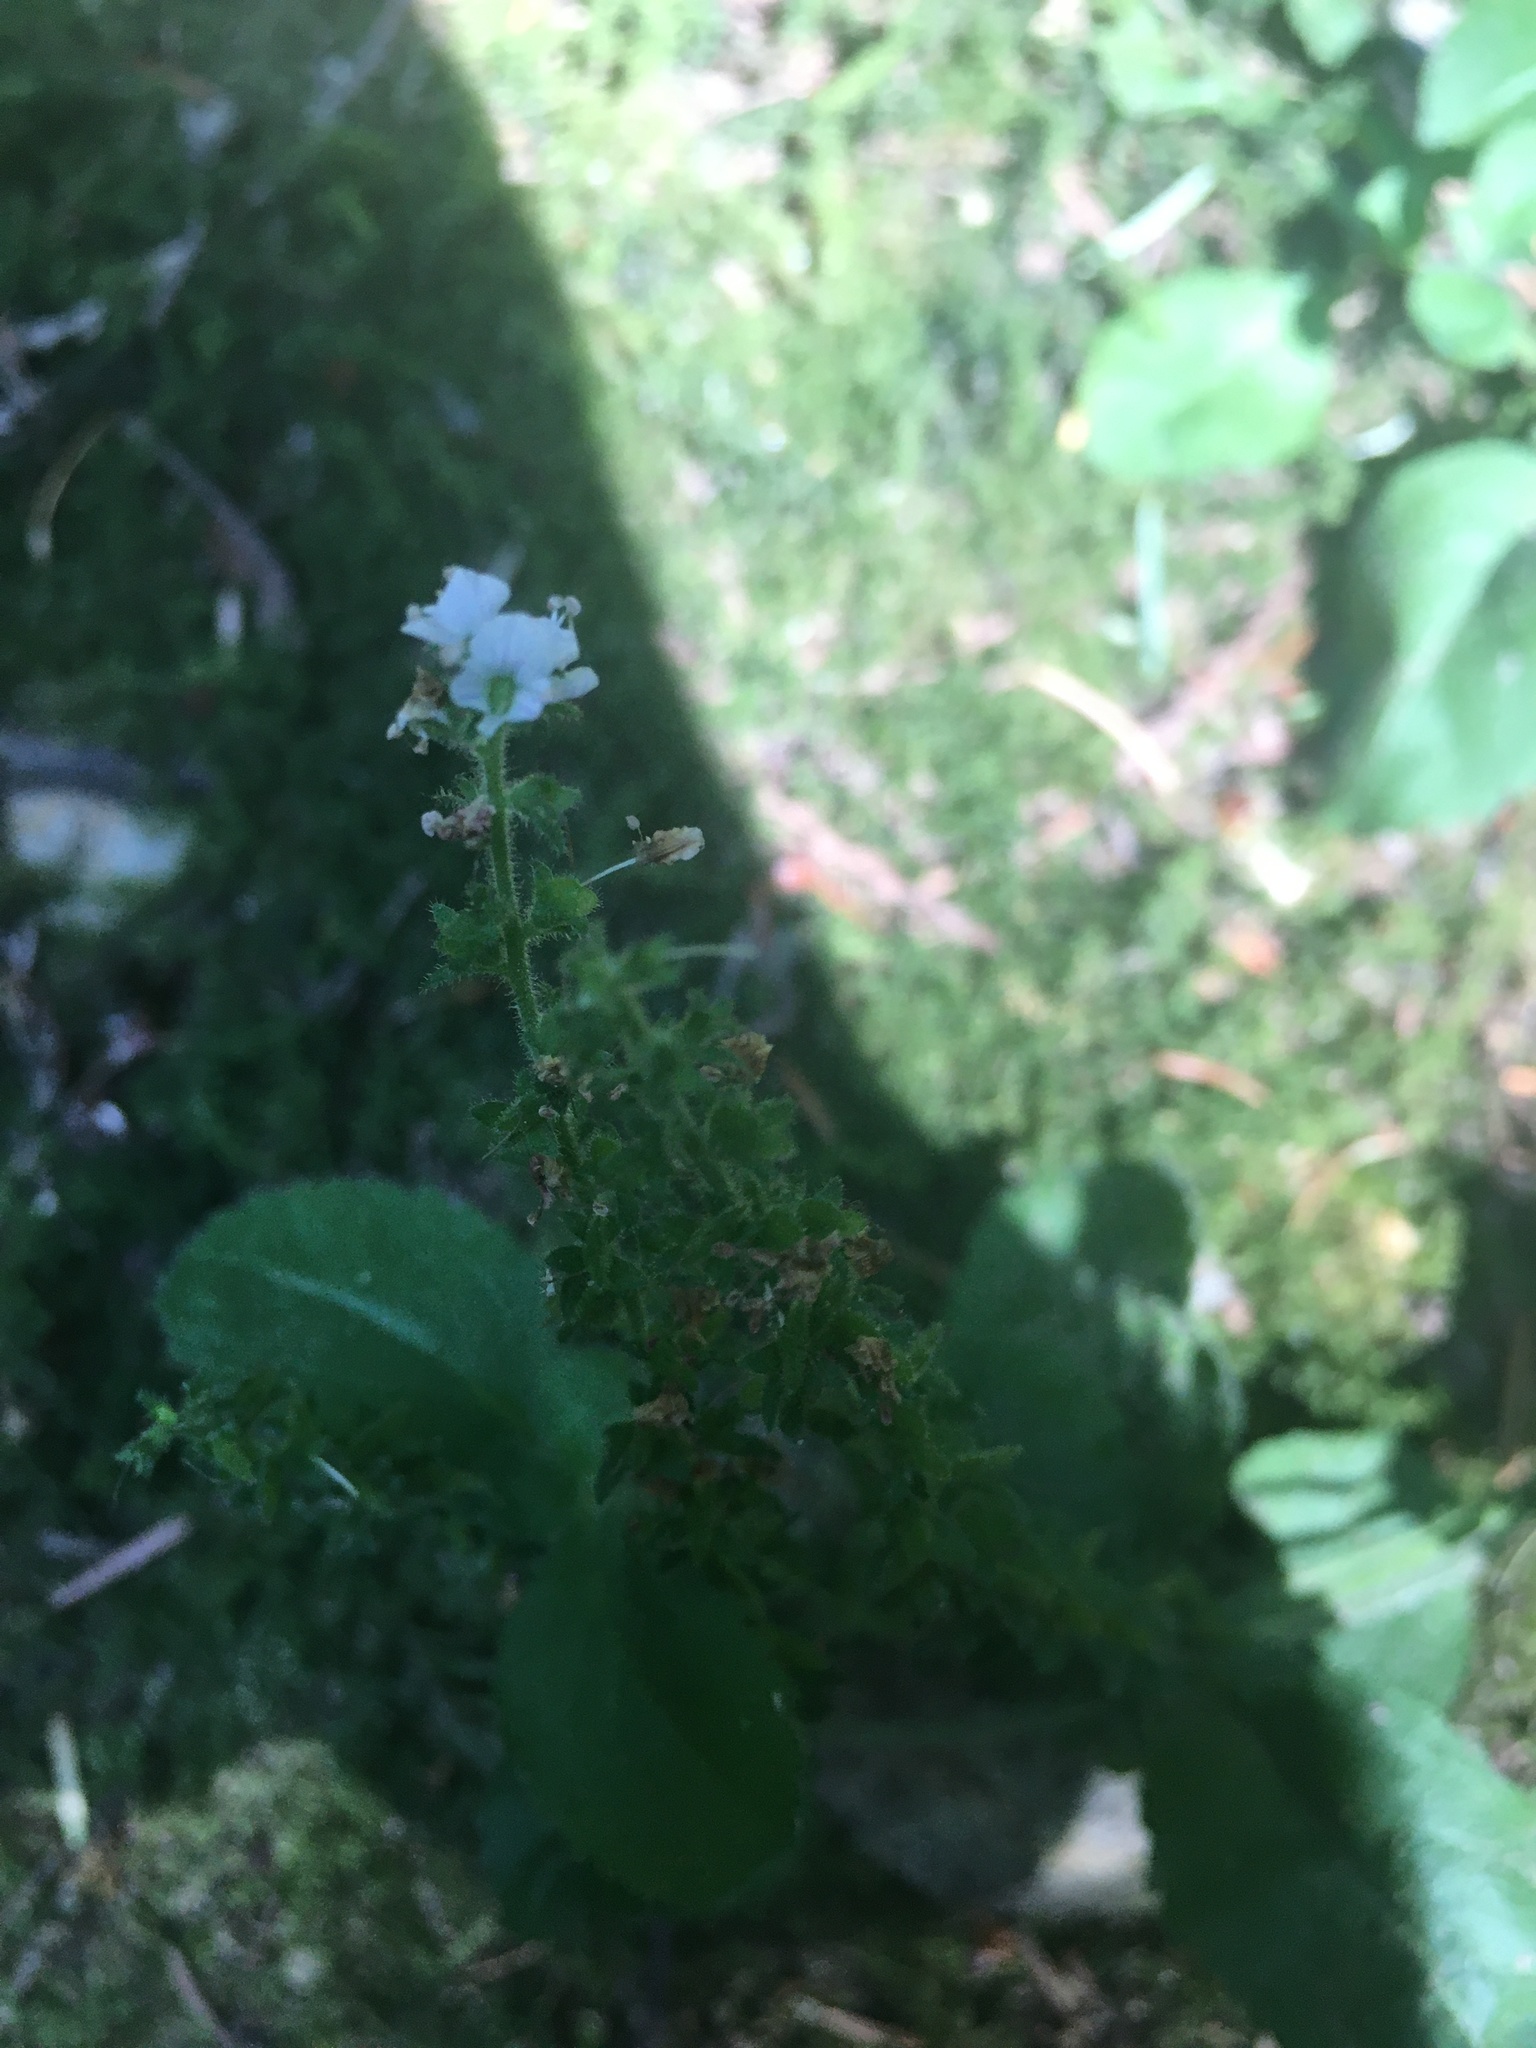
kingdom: Plantae
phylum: Tracheophyta
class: Magnoliopsida
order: Lamiales
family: Plantaginaceae
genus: Veronica
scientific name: Veronica officinalis
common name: Common speedwell
